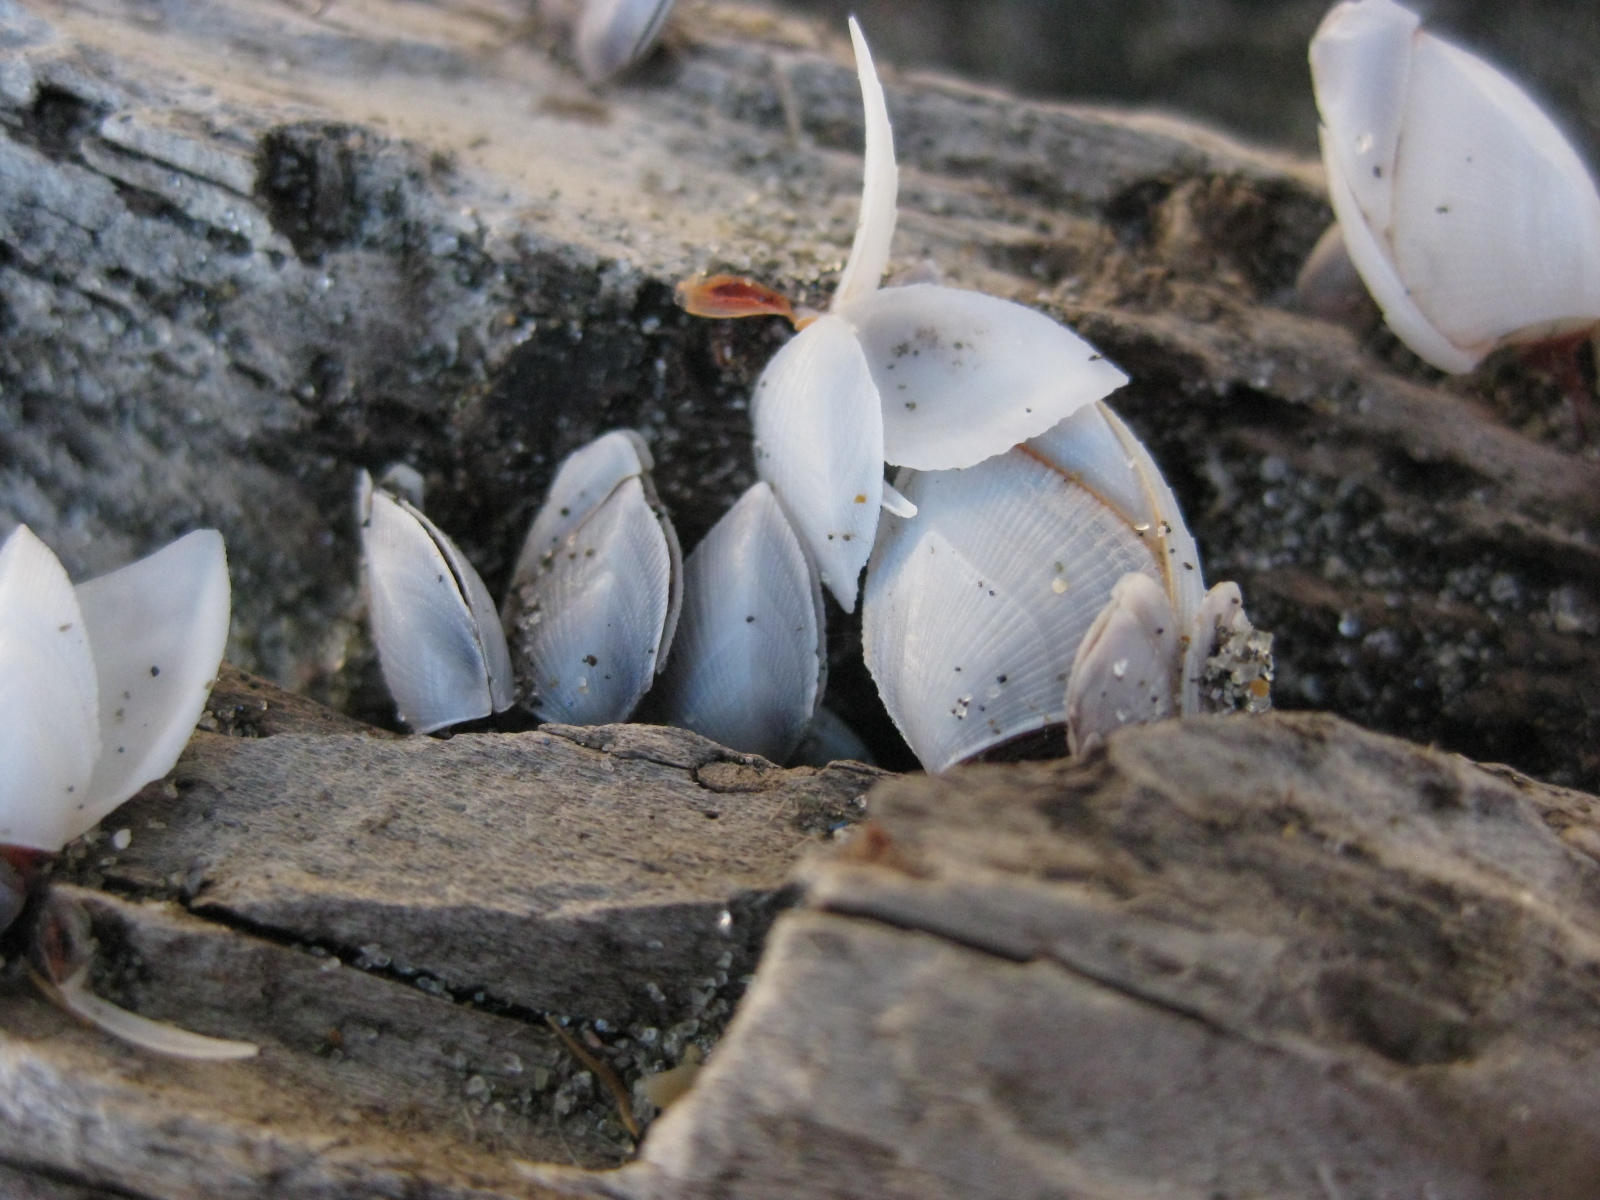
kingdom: Animalia
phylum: Arthropoda
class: Maxillopoda
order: Pedunculata
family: Lepadidae
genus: Lepas
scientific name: Lepas anatifera
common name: Common goose barnacle
